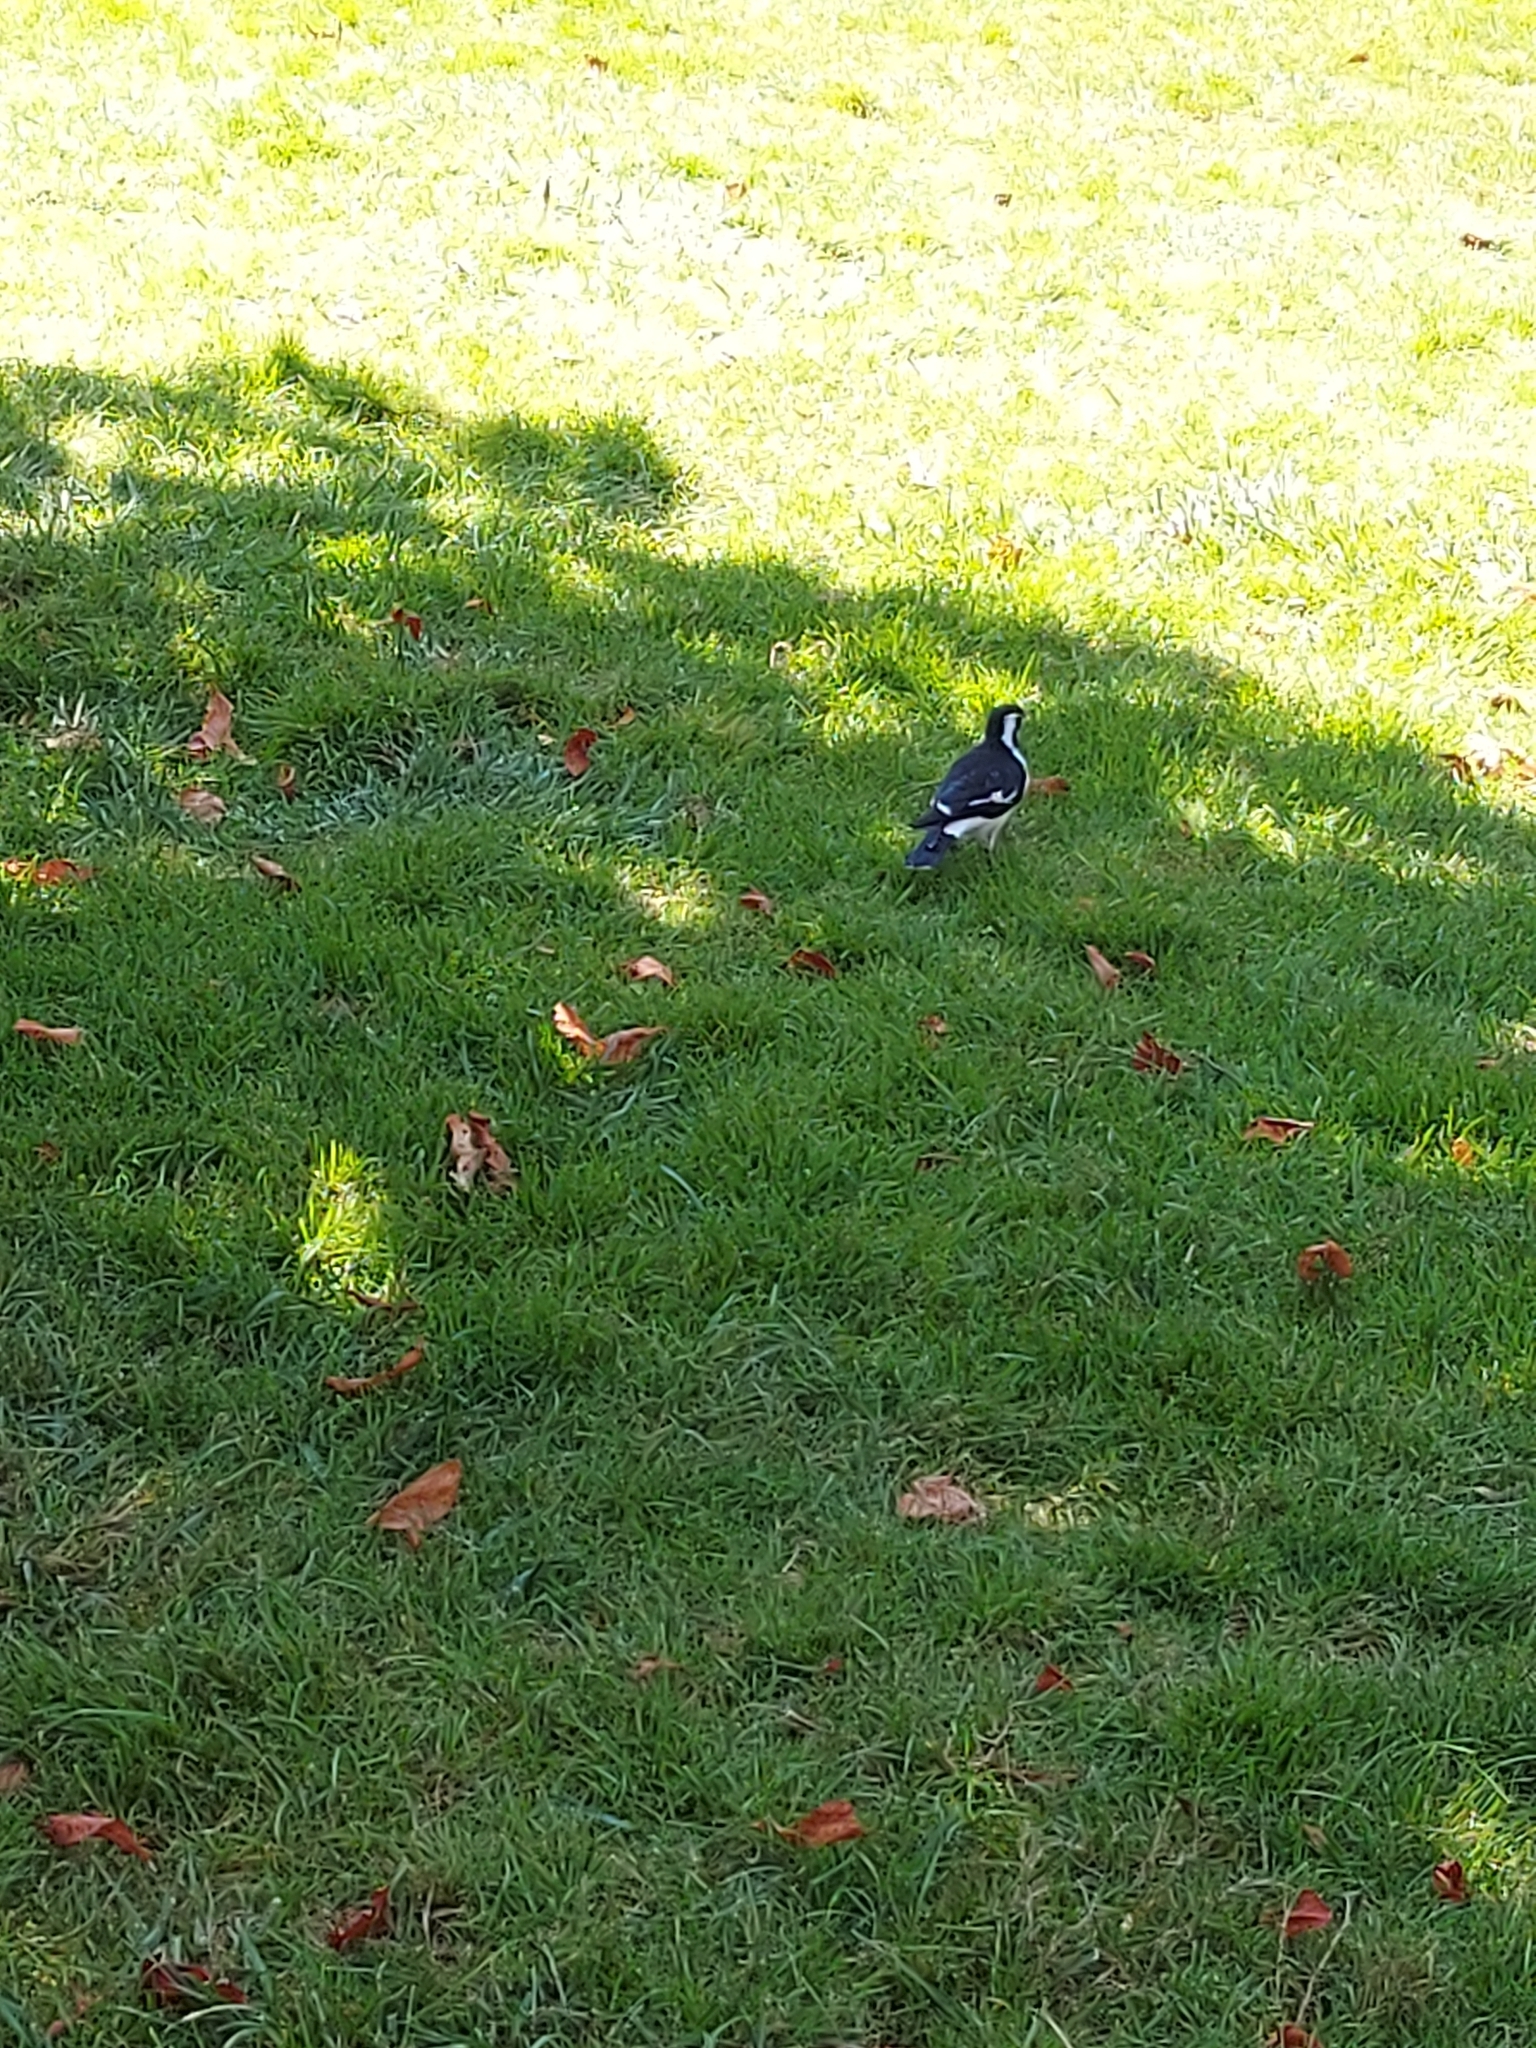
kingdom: Animalia
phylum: Chordata
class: Aves
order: Passeriformes
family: Monarchidae
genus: Grallina
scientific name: Grallina cyanoleuca
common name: Magpie-lark
